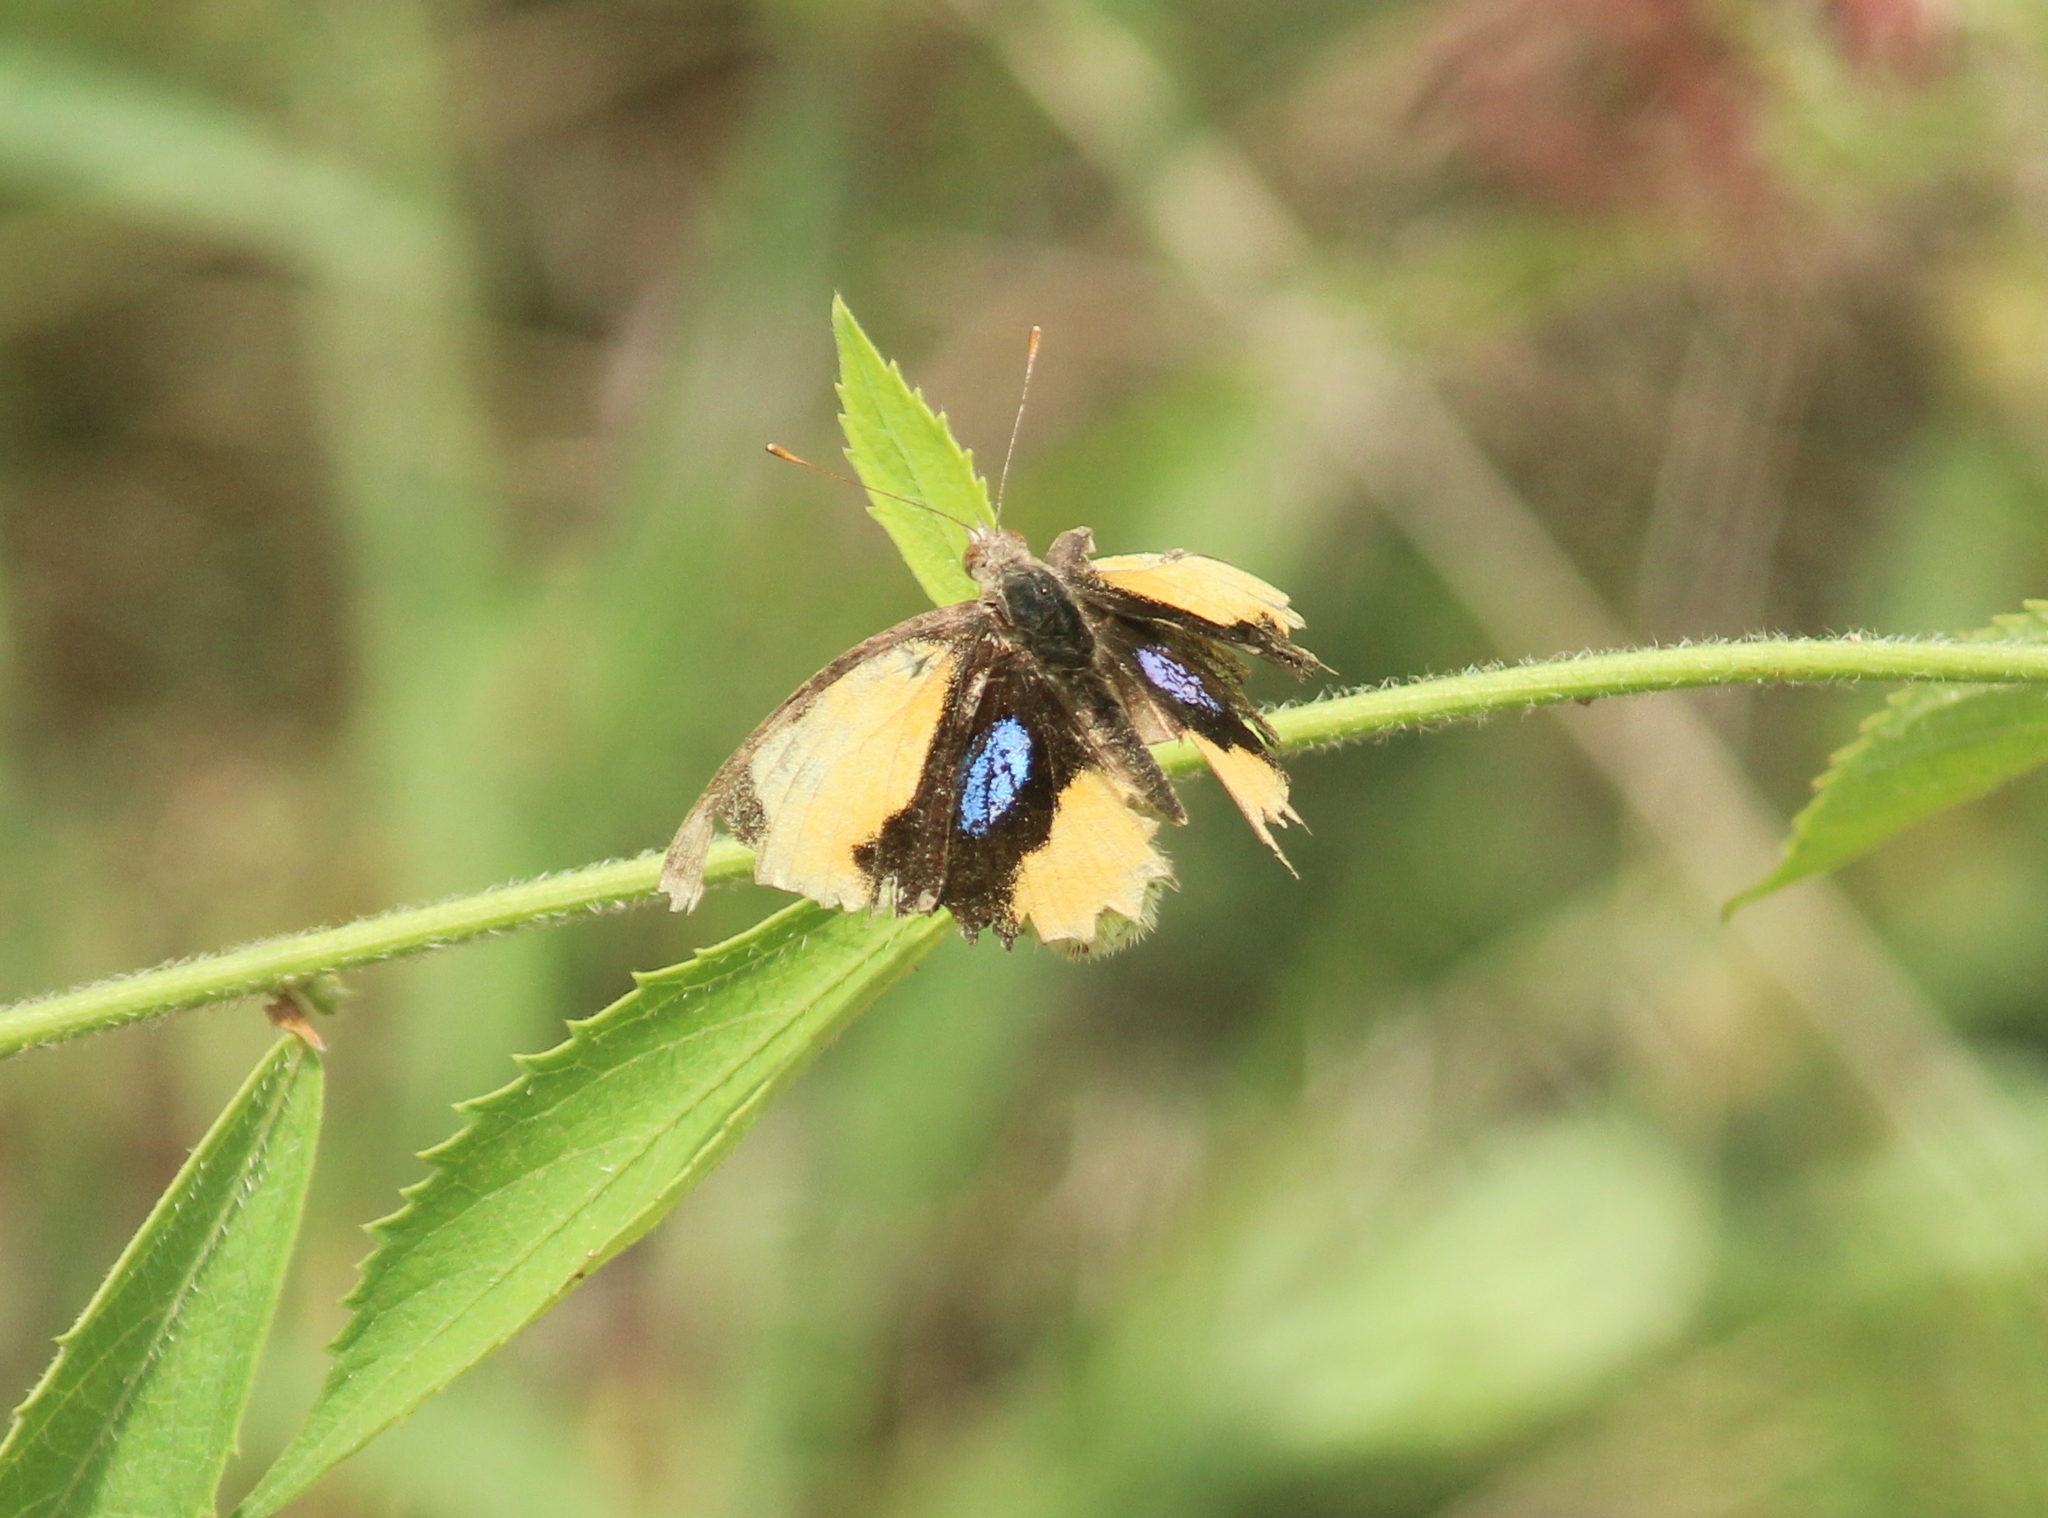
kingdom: Animalia
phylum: Arthropoda
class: Insecta
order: Lepidoptera
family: Nymphalidae
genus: Junonia
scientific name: Junonia hierta
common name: Yellow pansy
